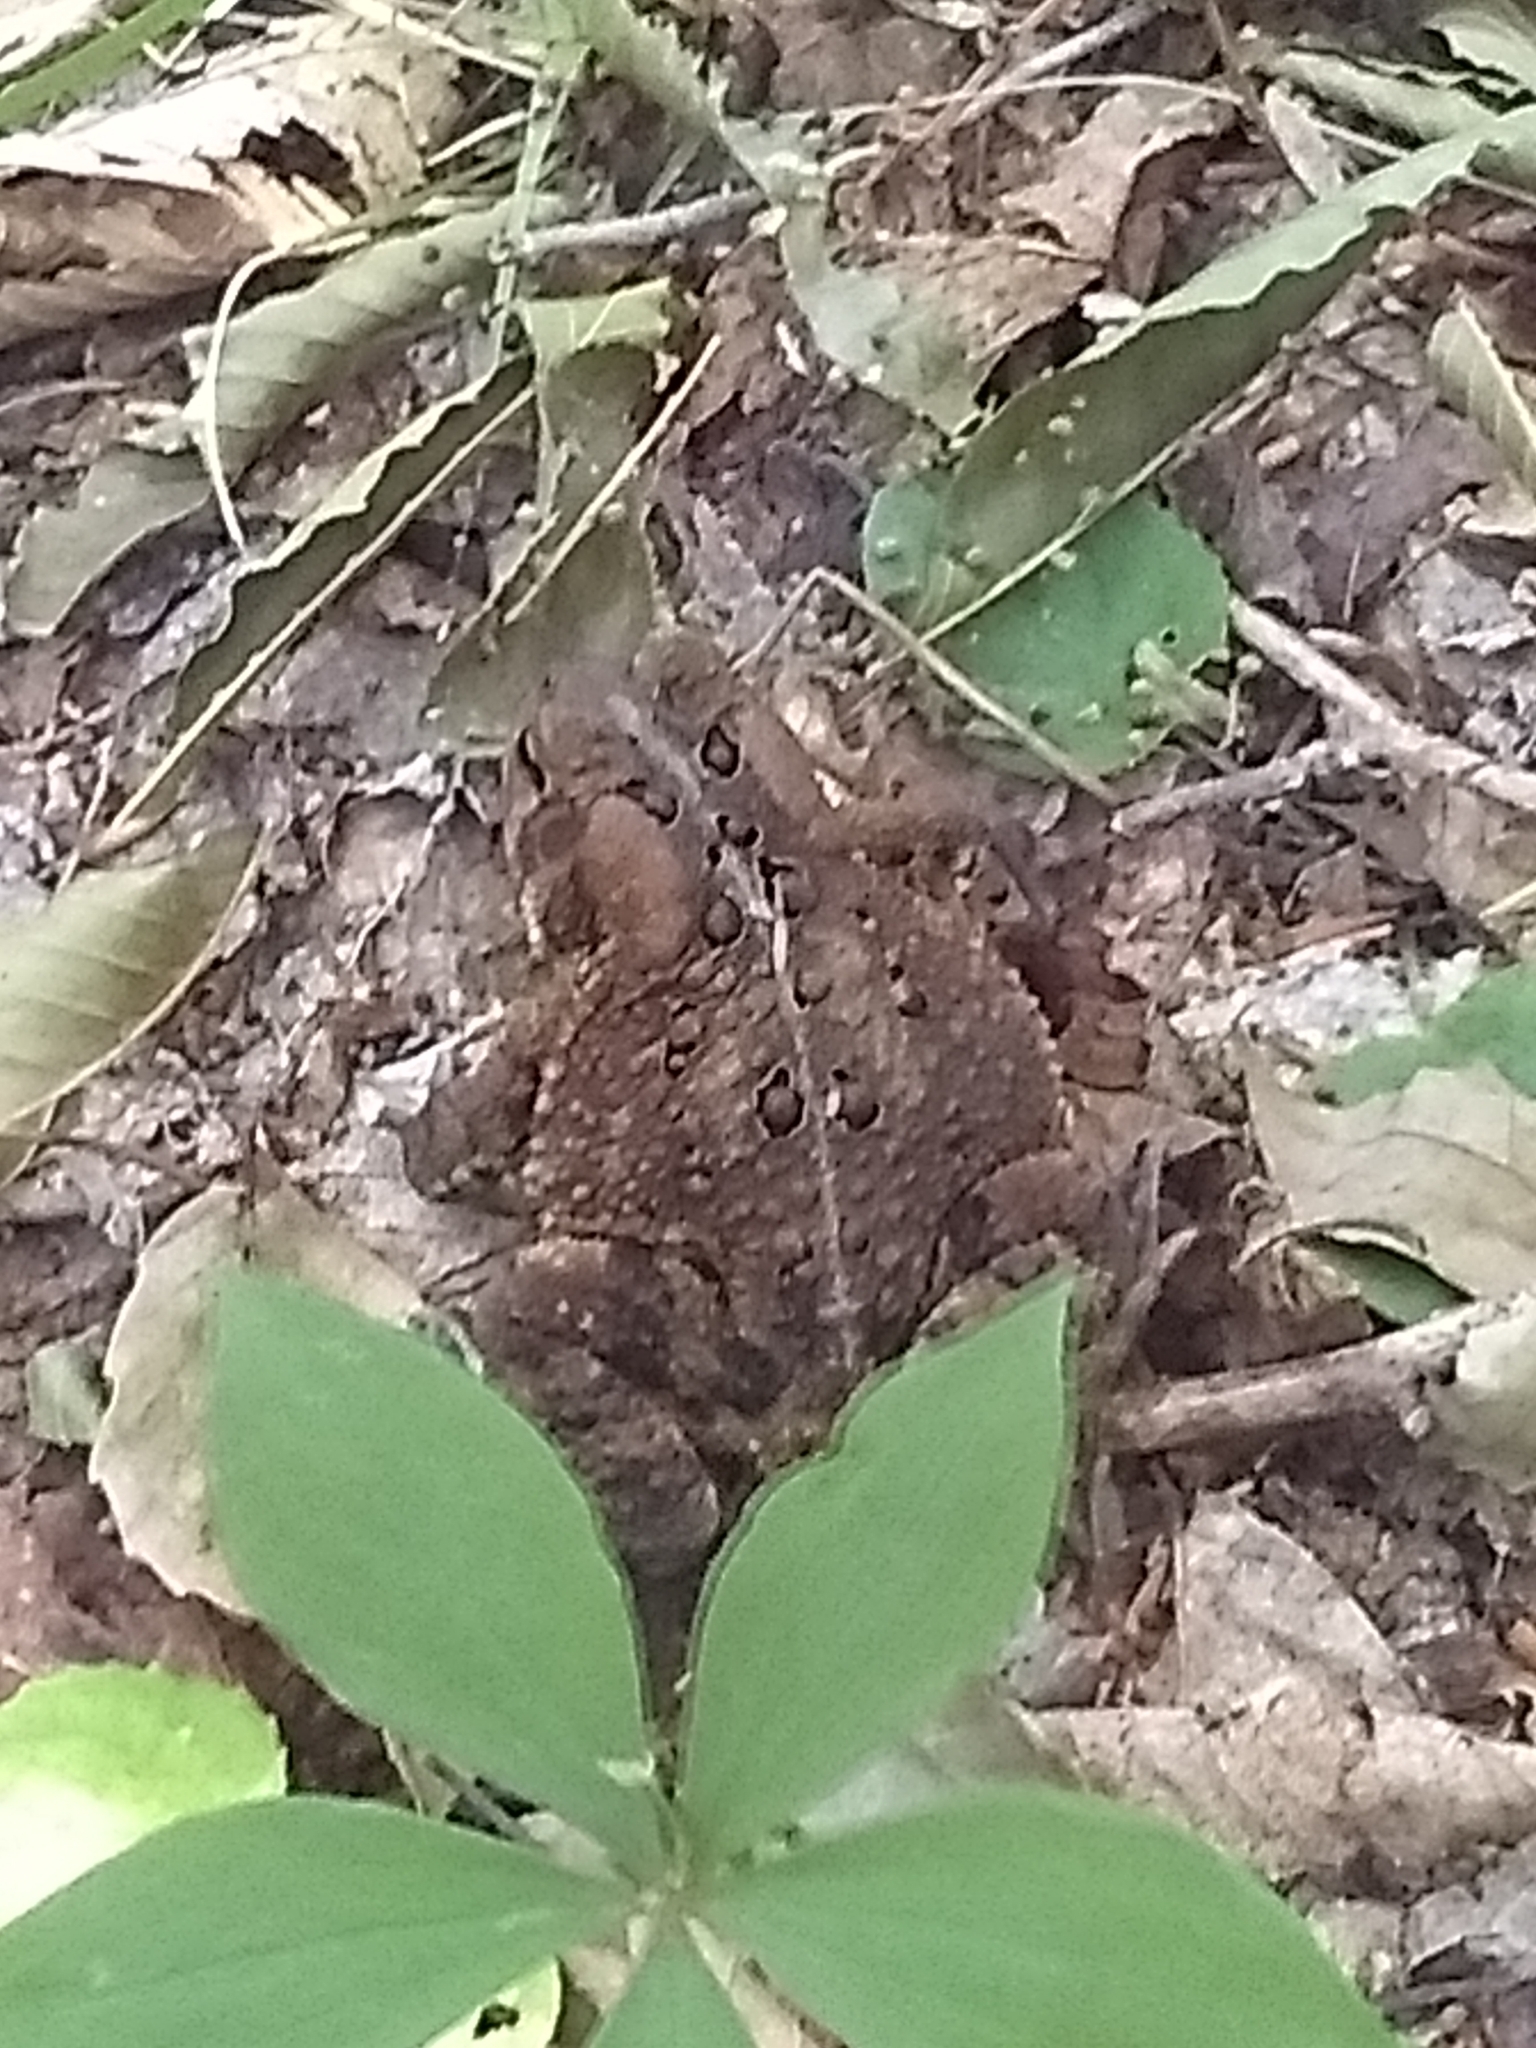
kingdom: Animalia
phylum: Chordata
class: Amphibia
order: Anura
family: Bufonidae
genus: Anaxyrus
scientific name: Anaxyrus americanus
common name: American toad
